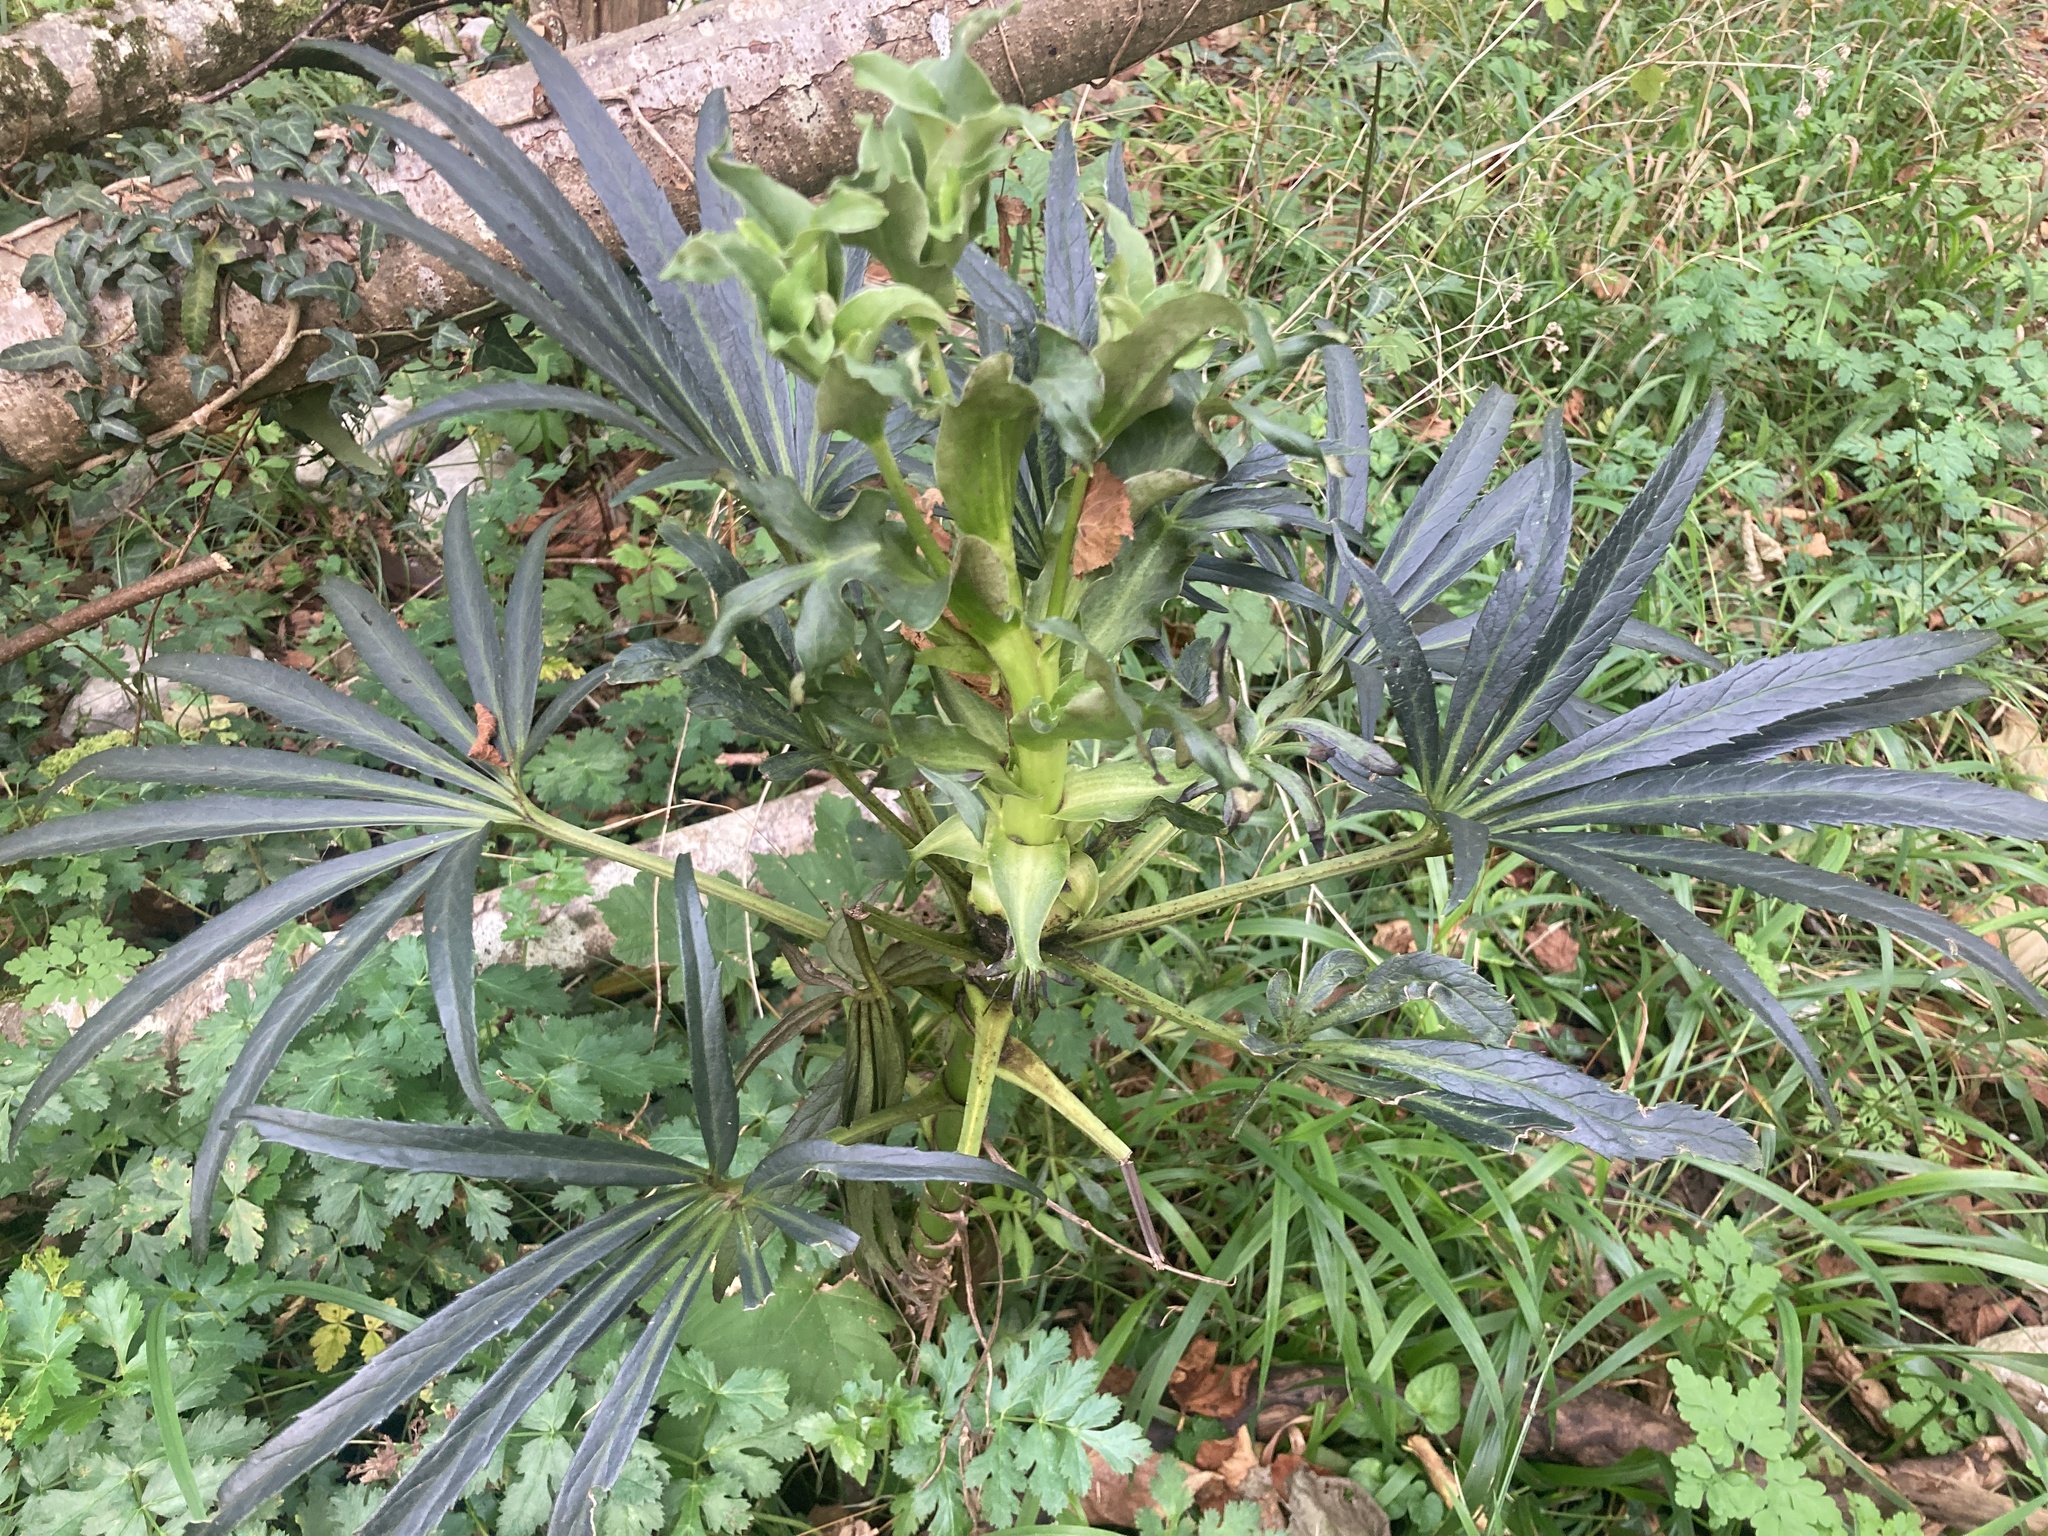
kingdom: Plantae
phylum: Tracheophyta
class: Magnoliopsida
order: Ranunculales
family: Ranunculaceae
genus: Helleborus
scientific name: Helleborus foetidus
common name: Stinking hellebore
